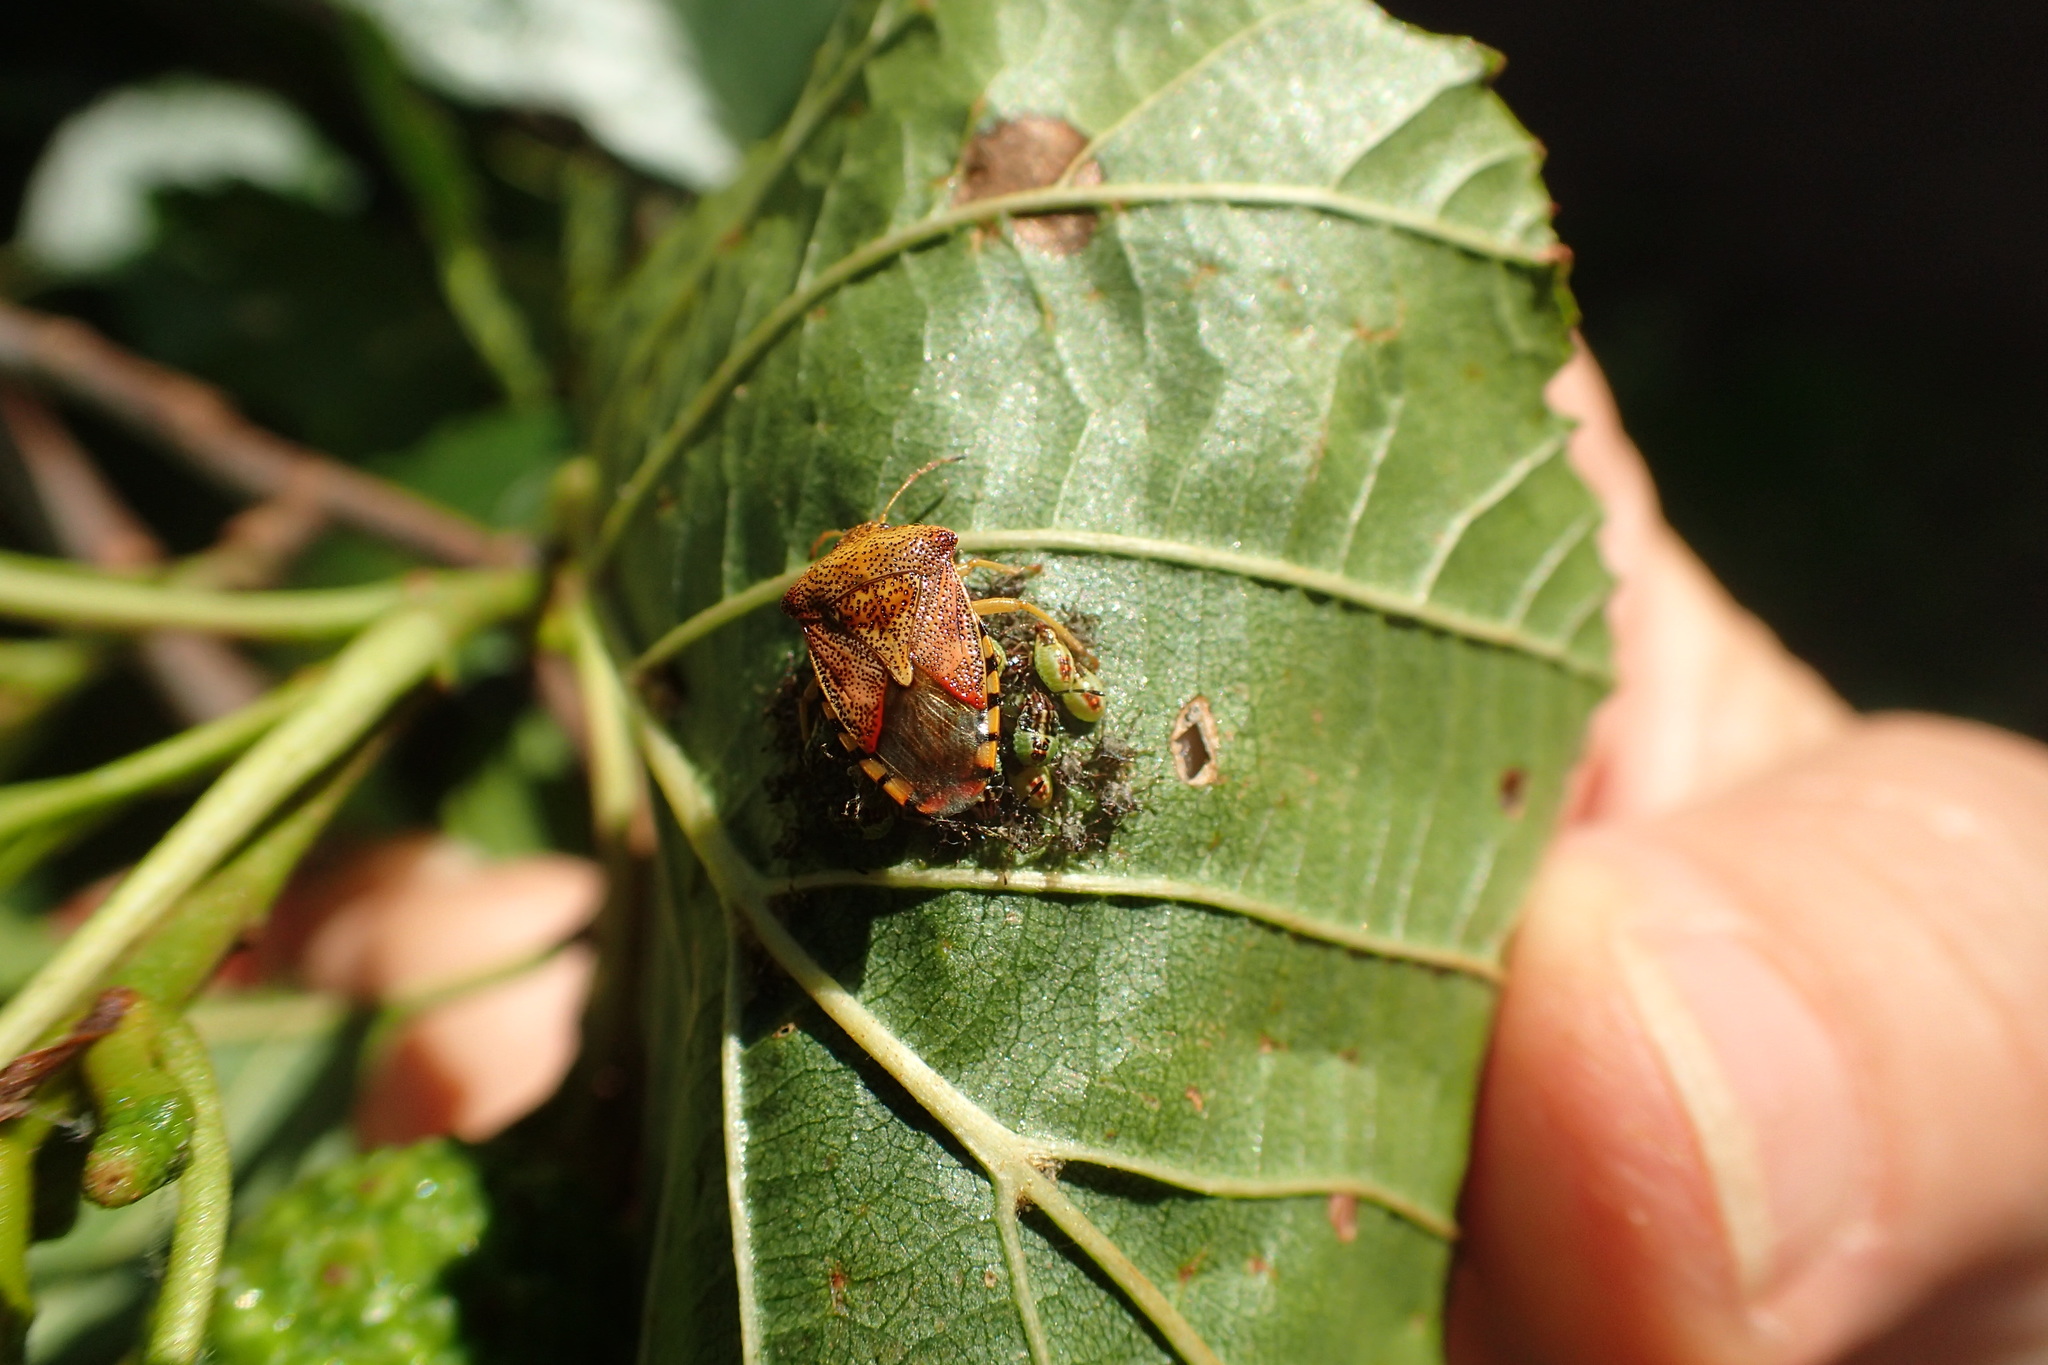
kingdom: Animalia
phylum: Arthropoda
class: Insecta
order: Hemiptera
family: Acanthosomatidae
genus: Elasmucha
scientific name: Elasmucha grisea
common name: Parent bug
